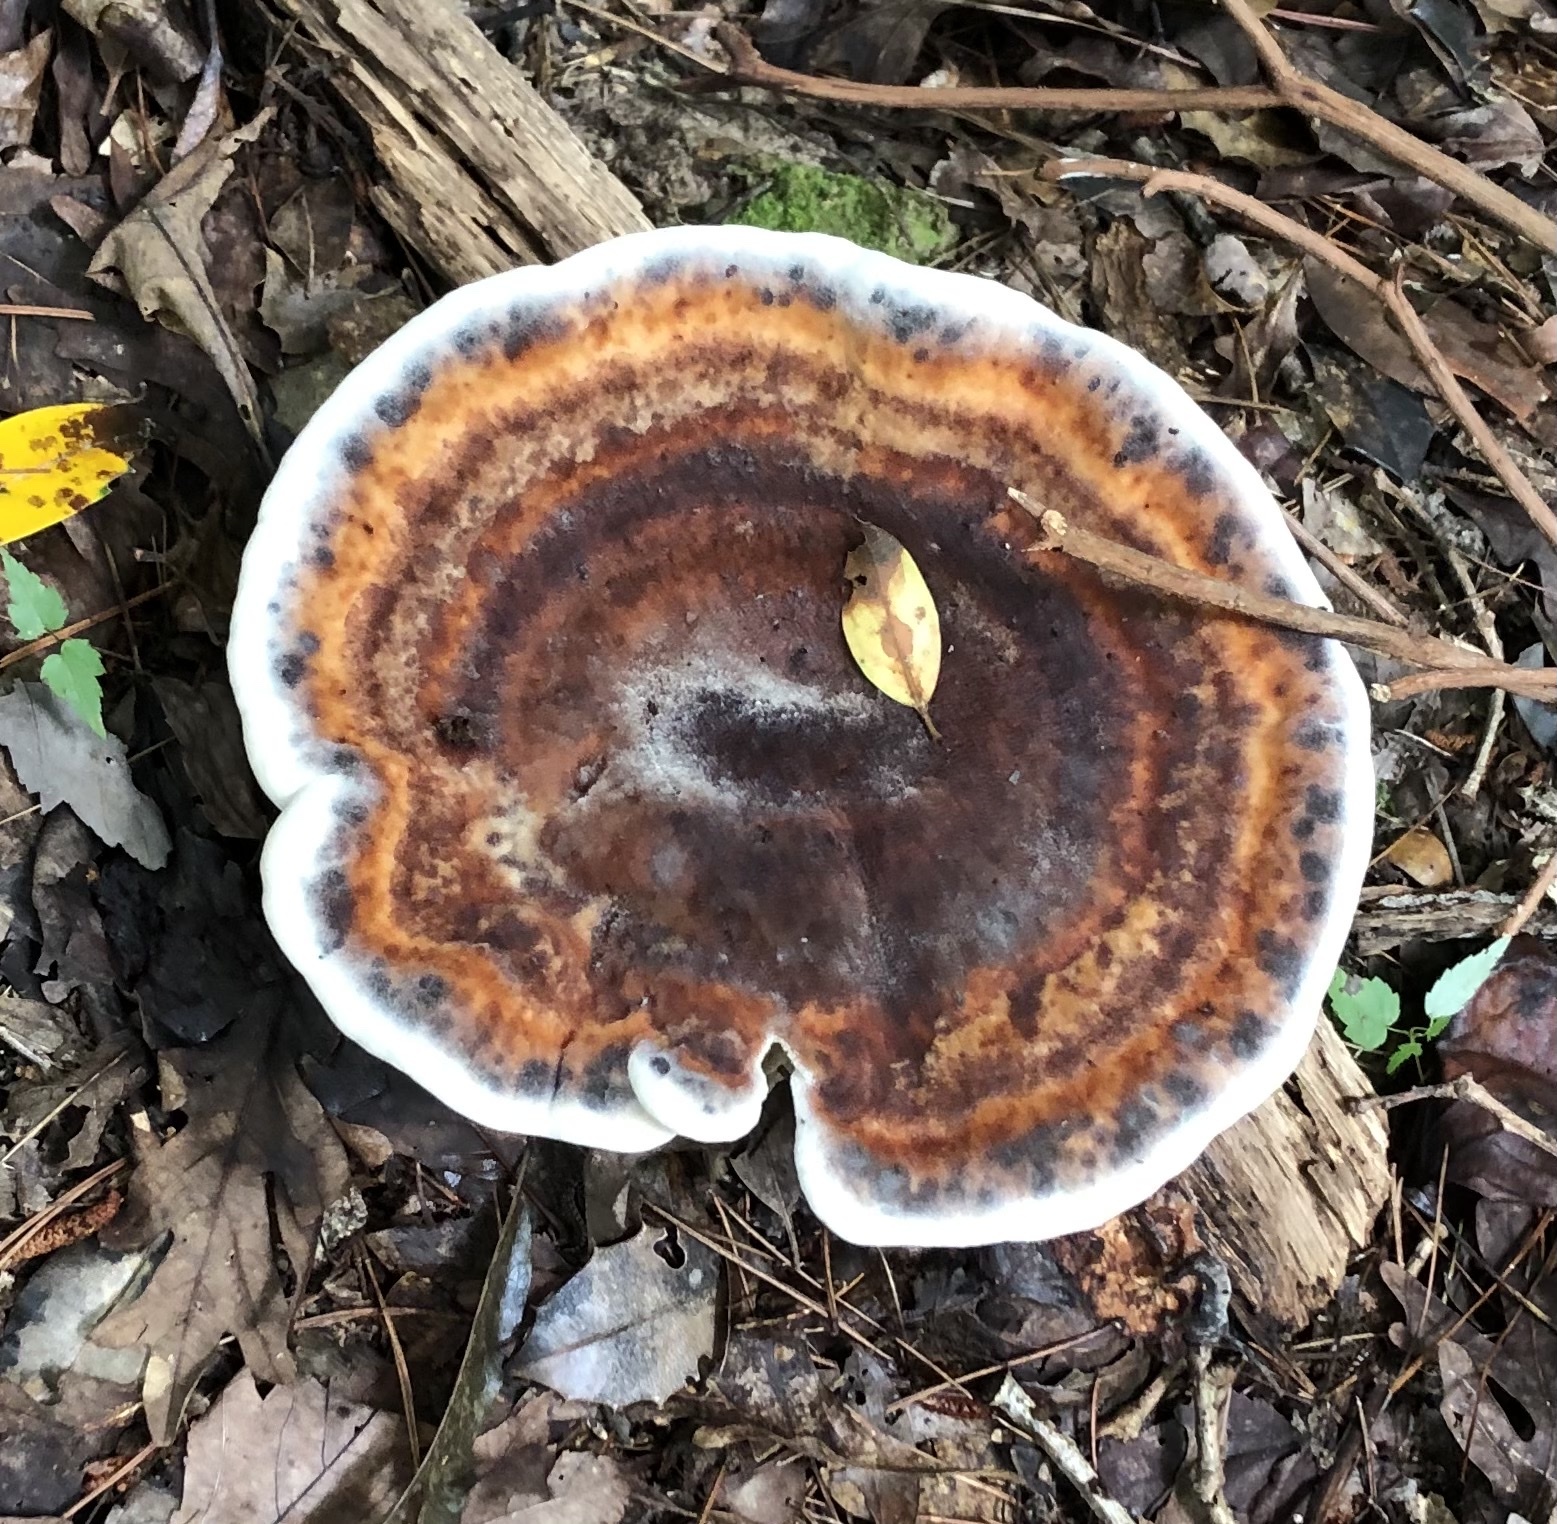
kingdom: Fungi
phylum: Basidiomycota
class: Agaricomycetes
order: Polyporales
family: Laetiporaceae
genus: Berkcurtia
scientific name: Berkcurtia persicina
